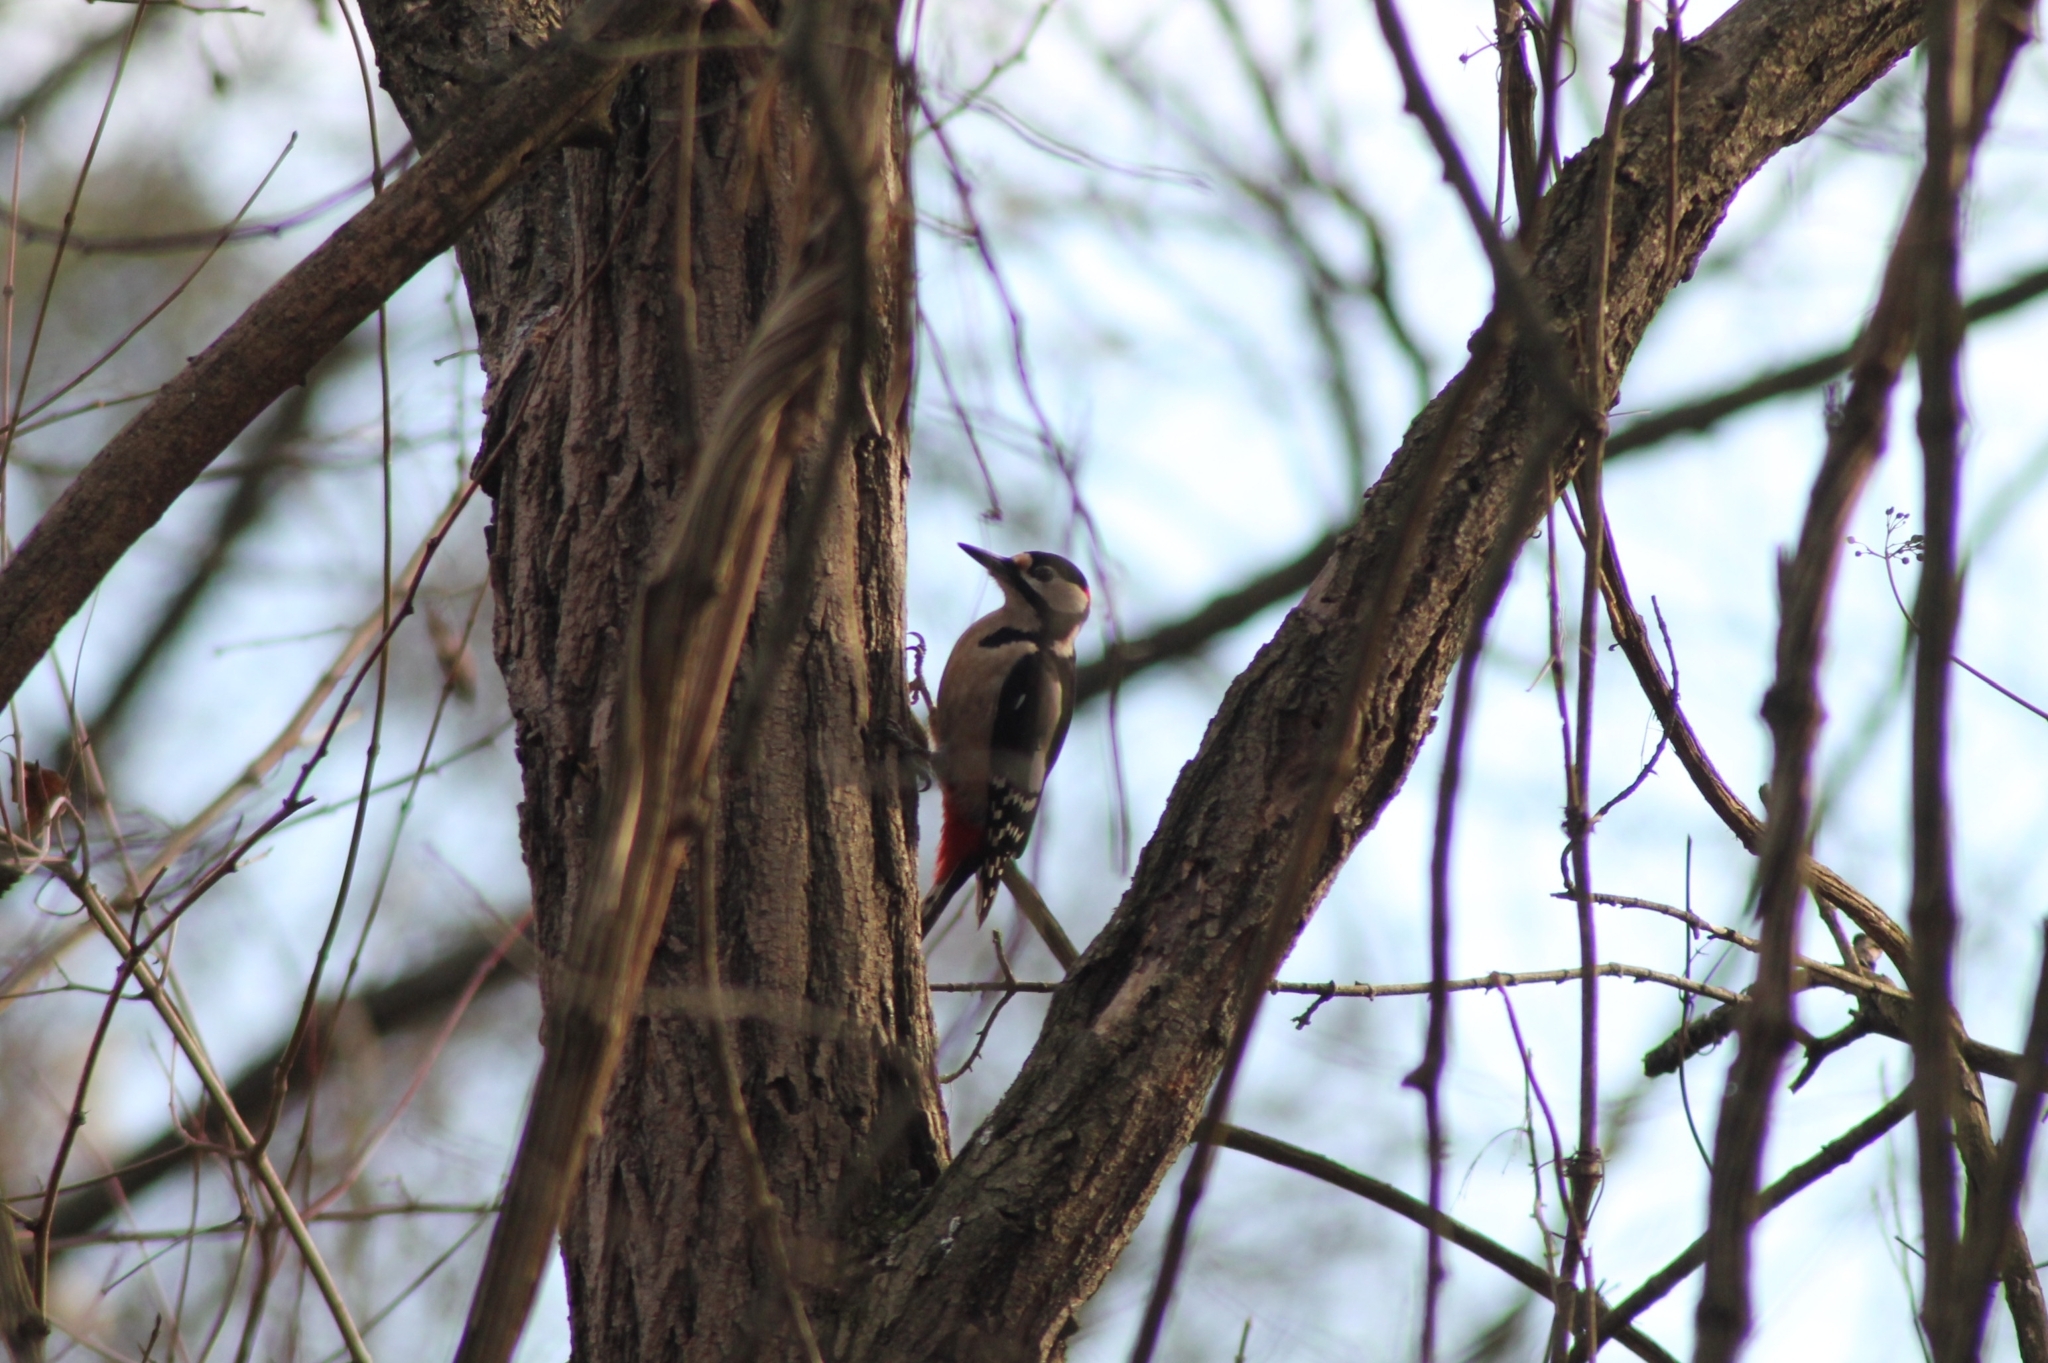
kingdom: Animalia
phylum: Chordata
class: Aves
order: Piciformes
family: Picidae
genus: Dendrocopos
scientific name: Dendrocopos major
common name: Great spotted woodpecker
